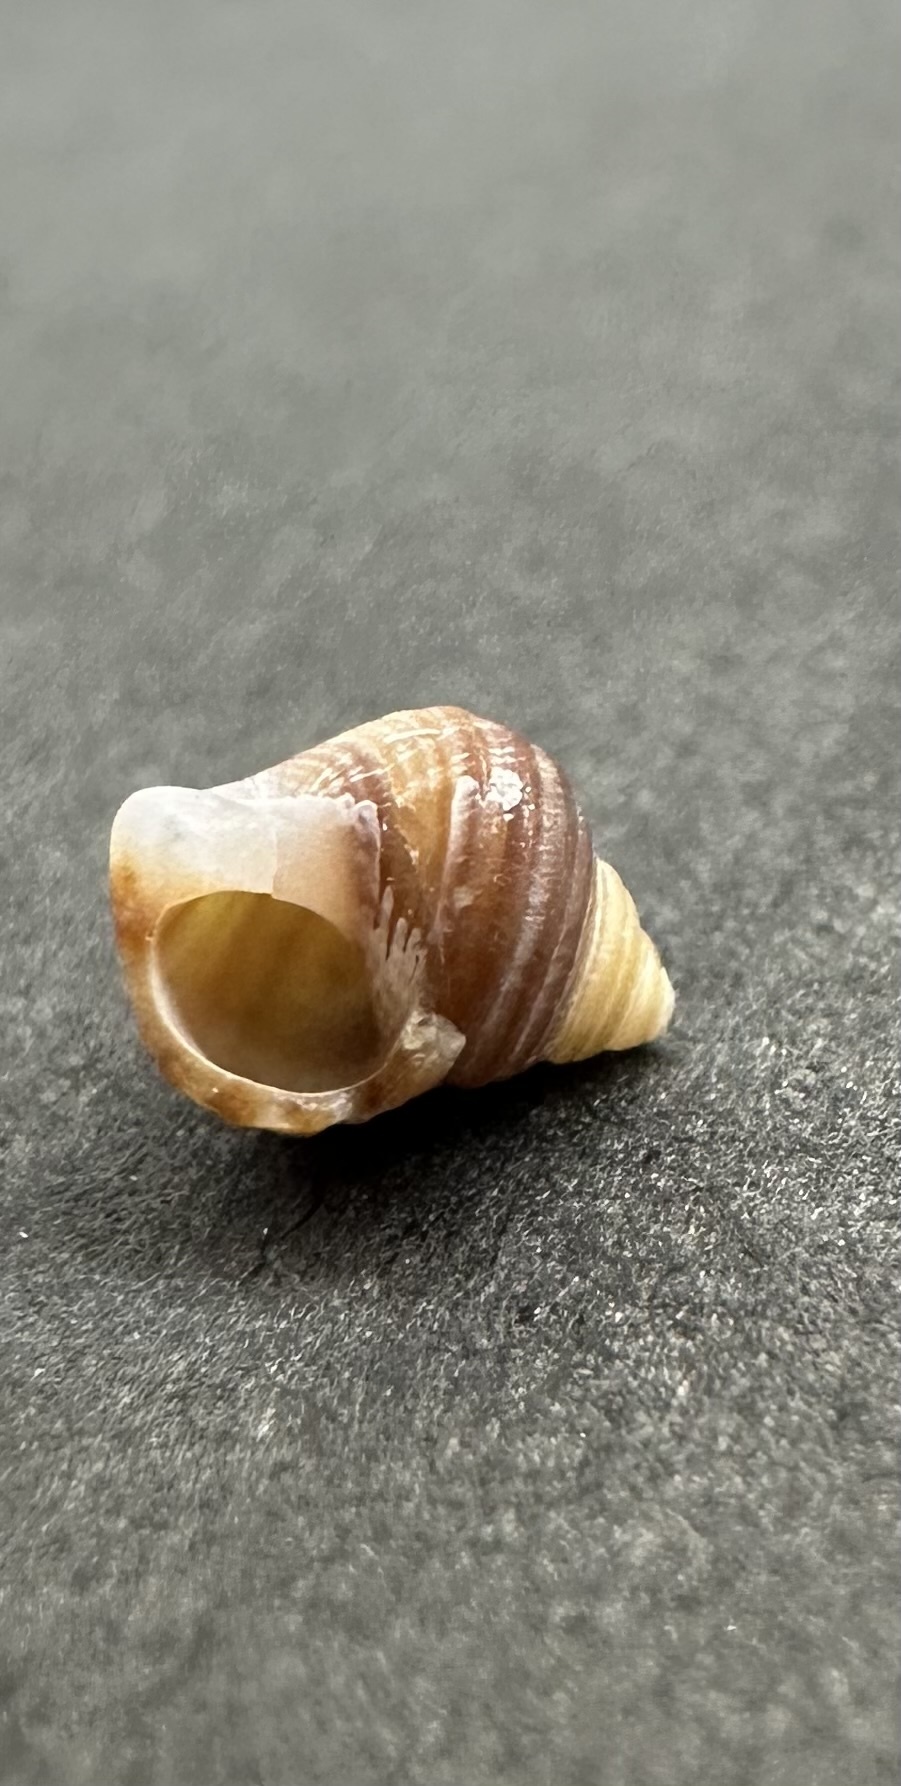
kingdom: Animalia
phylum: Mollusca
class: Gastropoda
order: Littorinimorpha
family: Littorinidae
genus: Littorina
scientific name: Littorina littorea
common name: Common periwinkle
